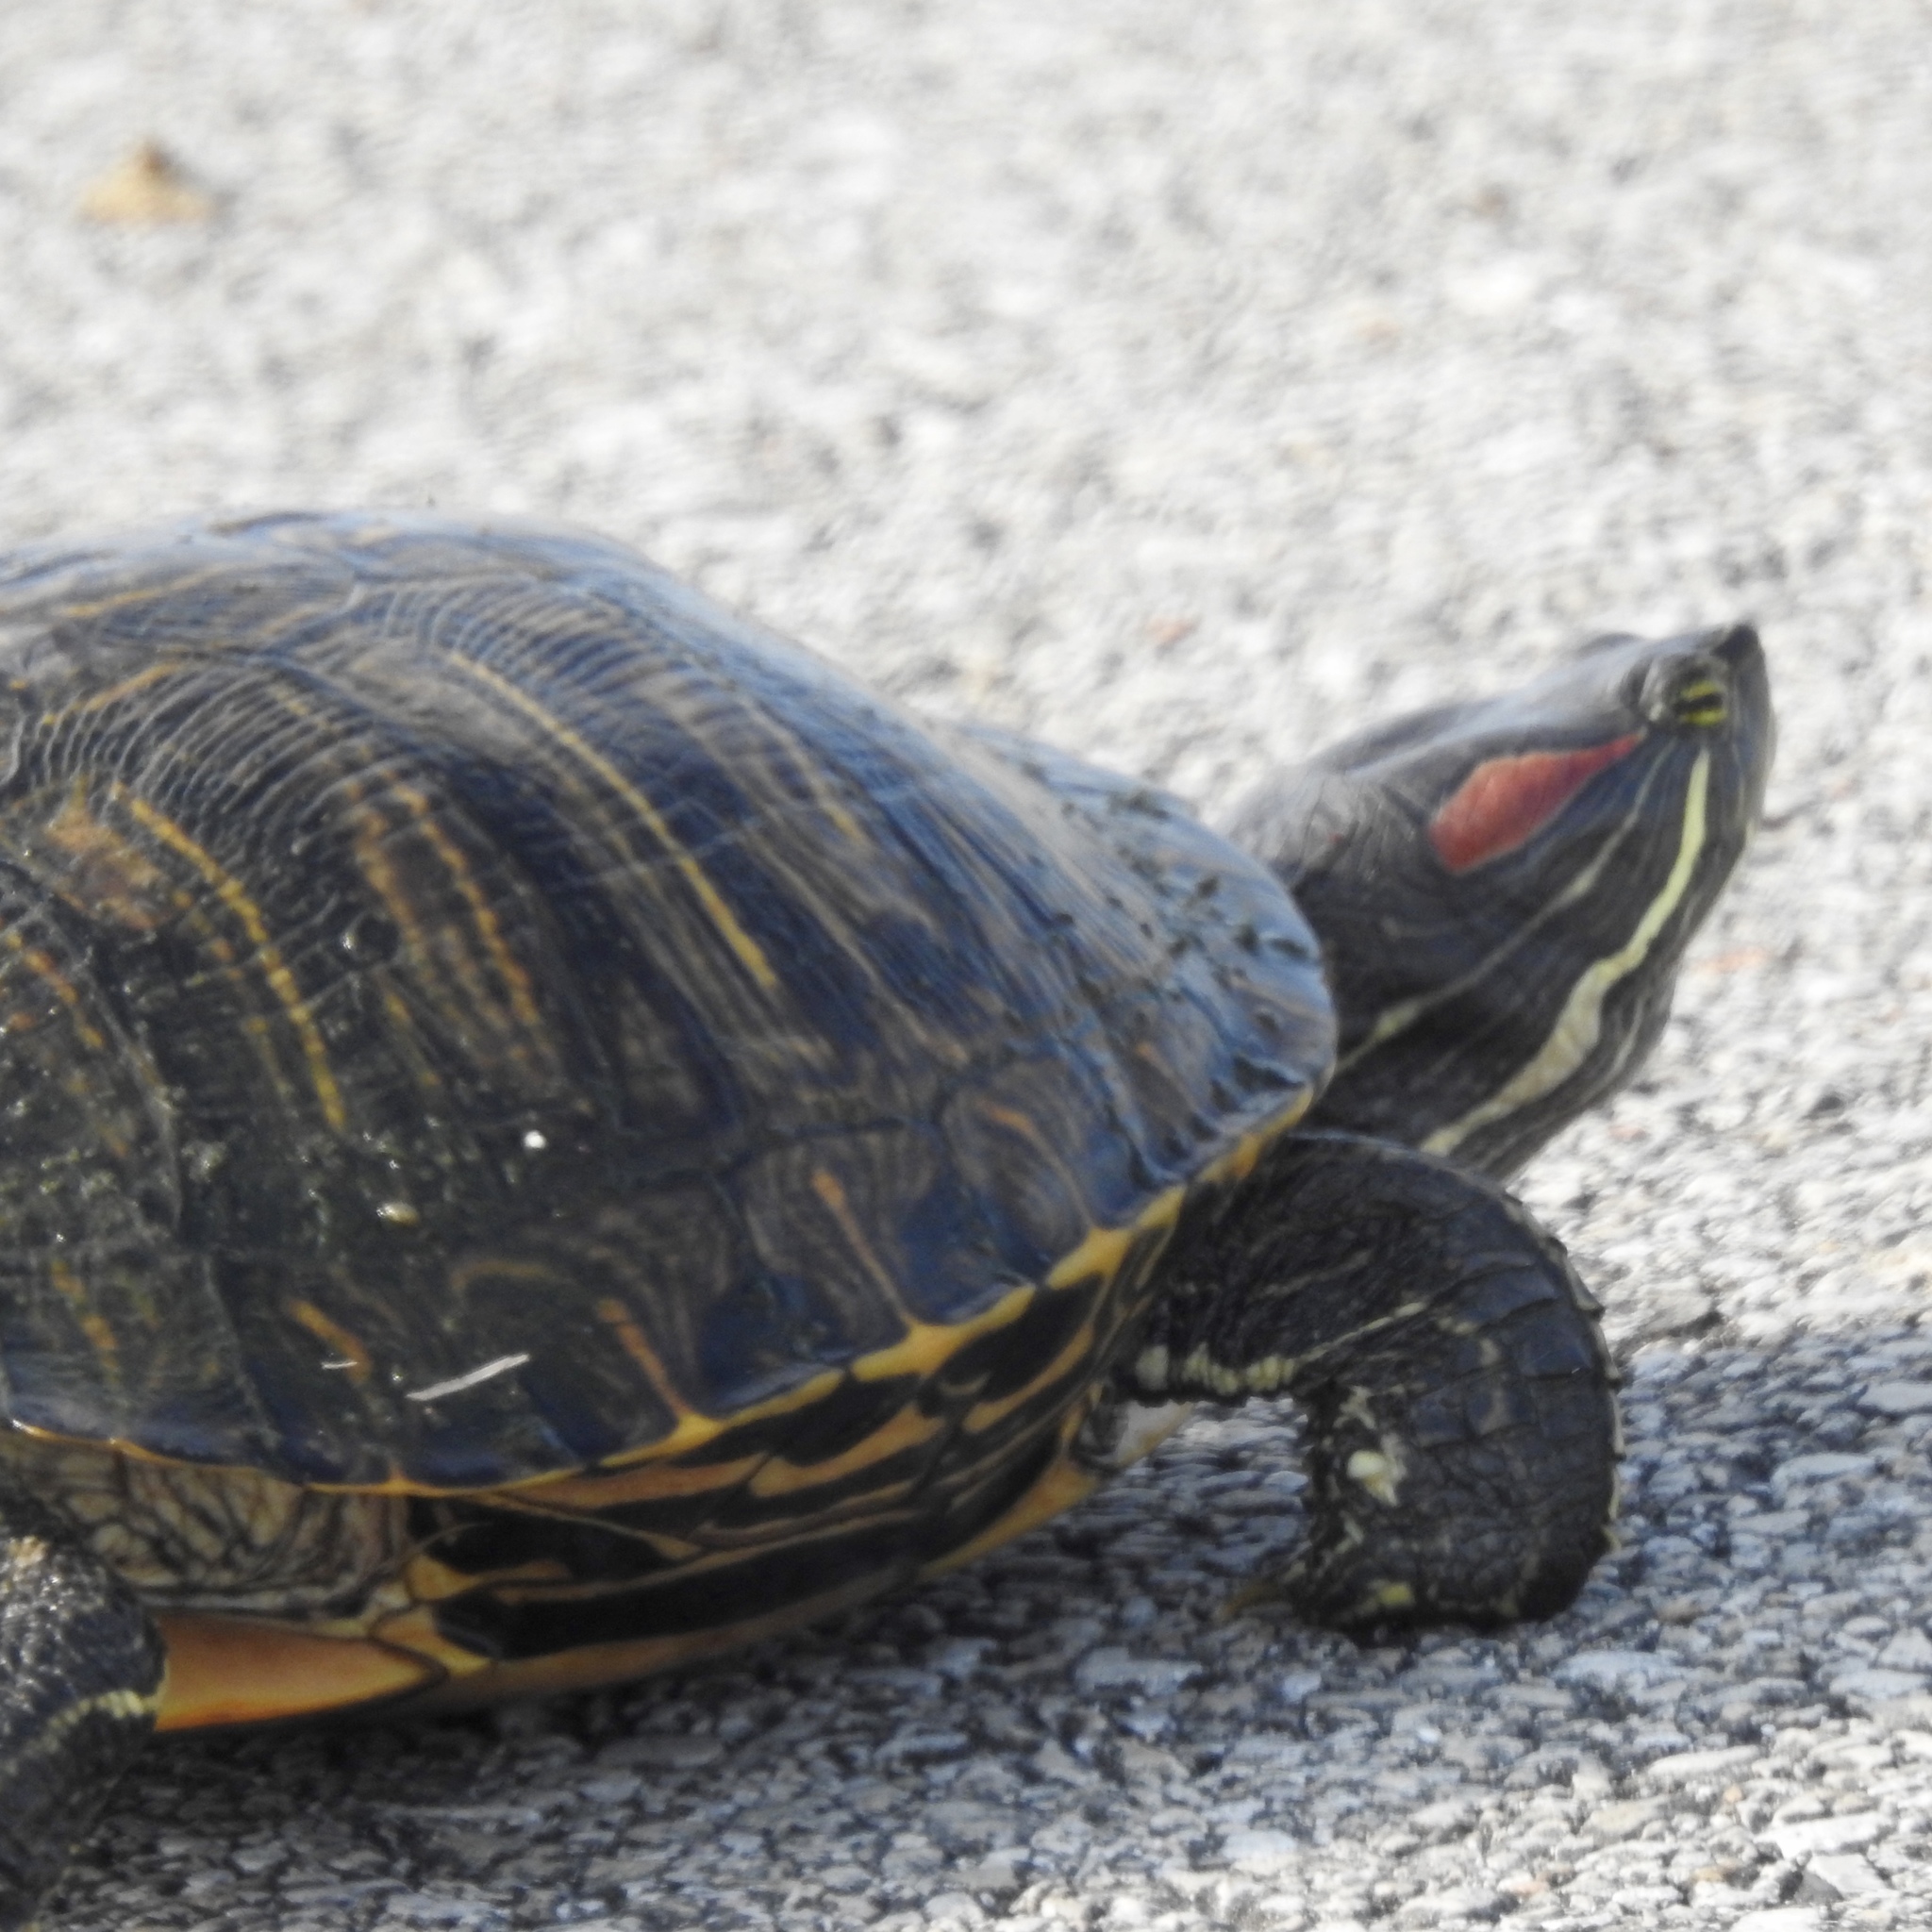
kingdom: Animalia
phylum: Chordata
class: Testudines
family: Emydidae
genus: Trachemys
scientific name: Trachemys scripta
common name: Slider
